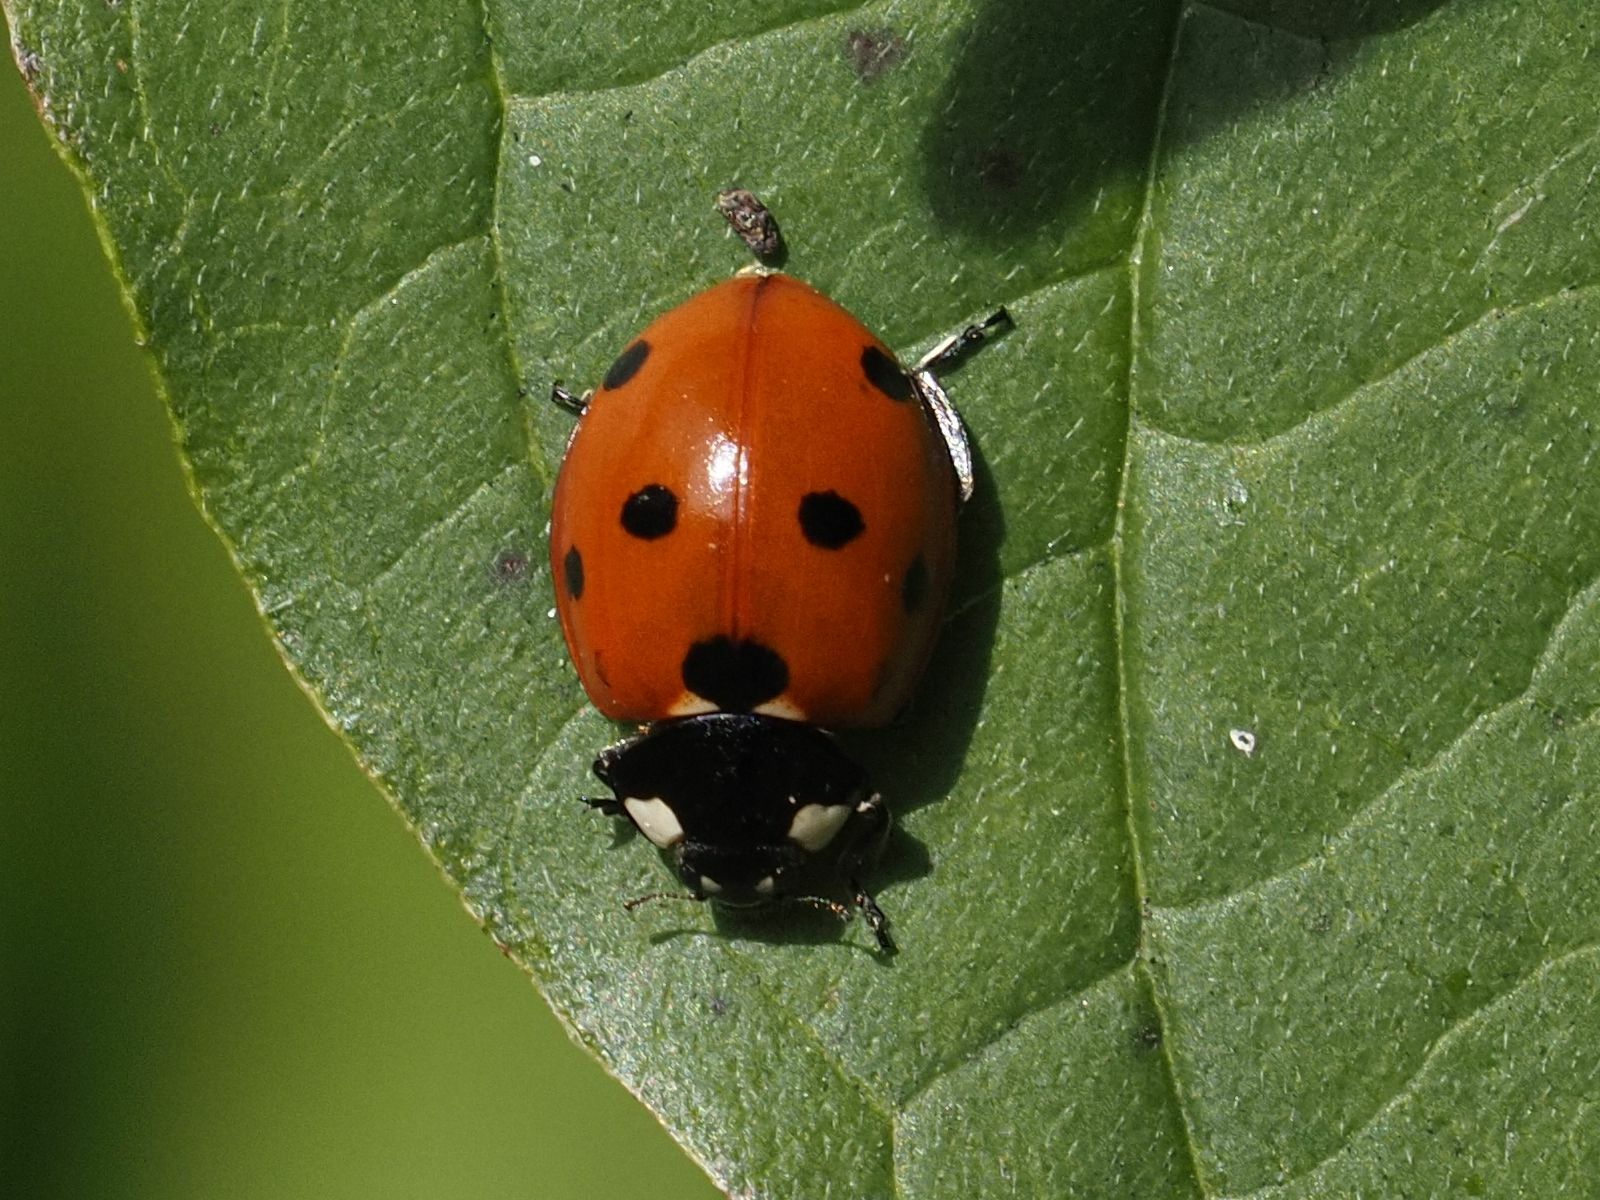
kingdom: Animalia
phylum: Arthropoda
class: Insecta
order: Coleoptera
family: Coccinellidae
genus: Coccinella
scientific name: Coccinella septempunctata
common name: Sevenspotted lady beetle
